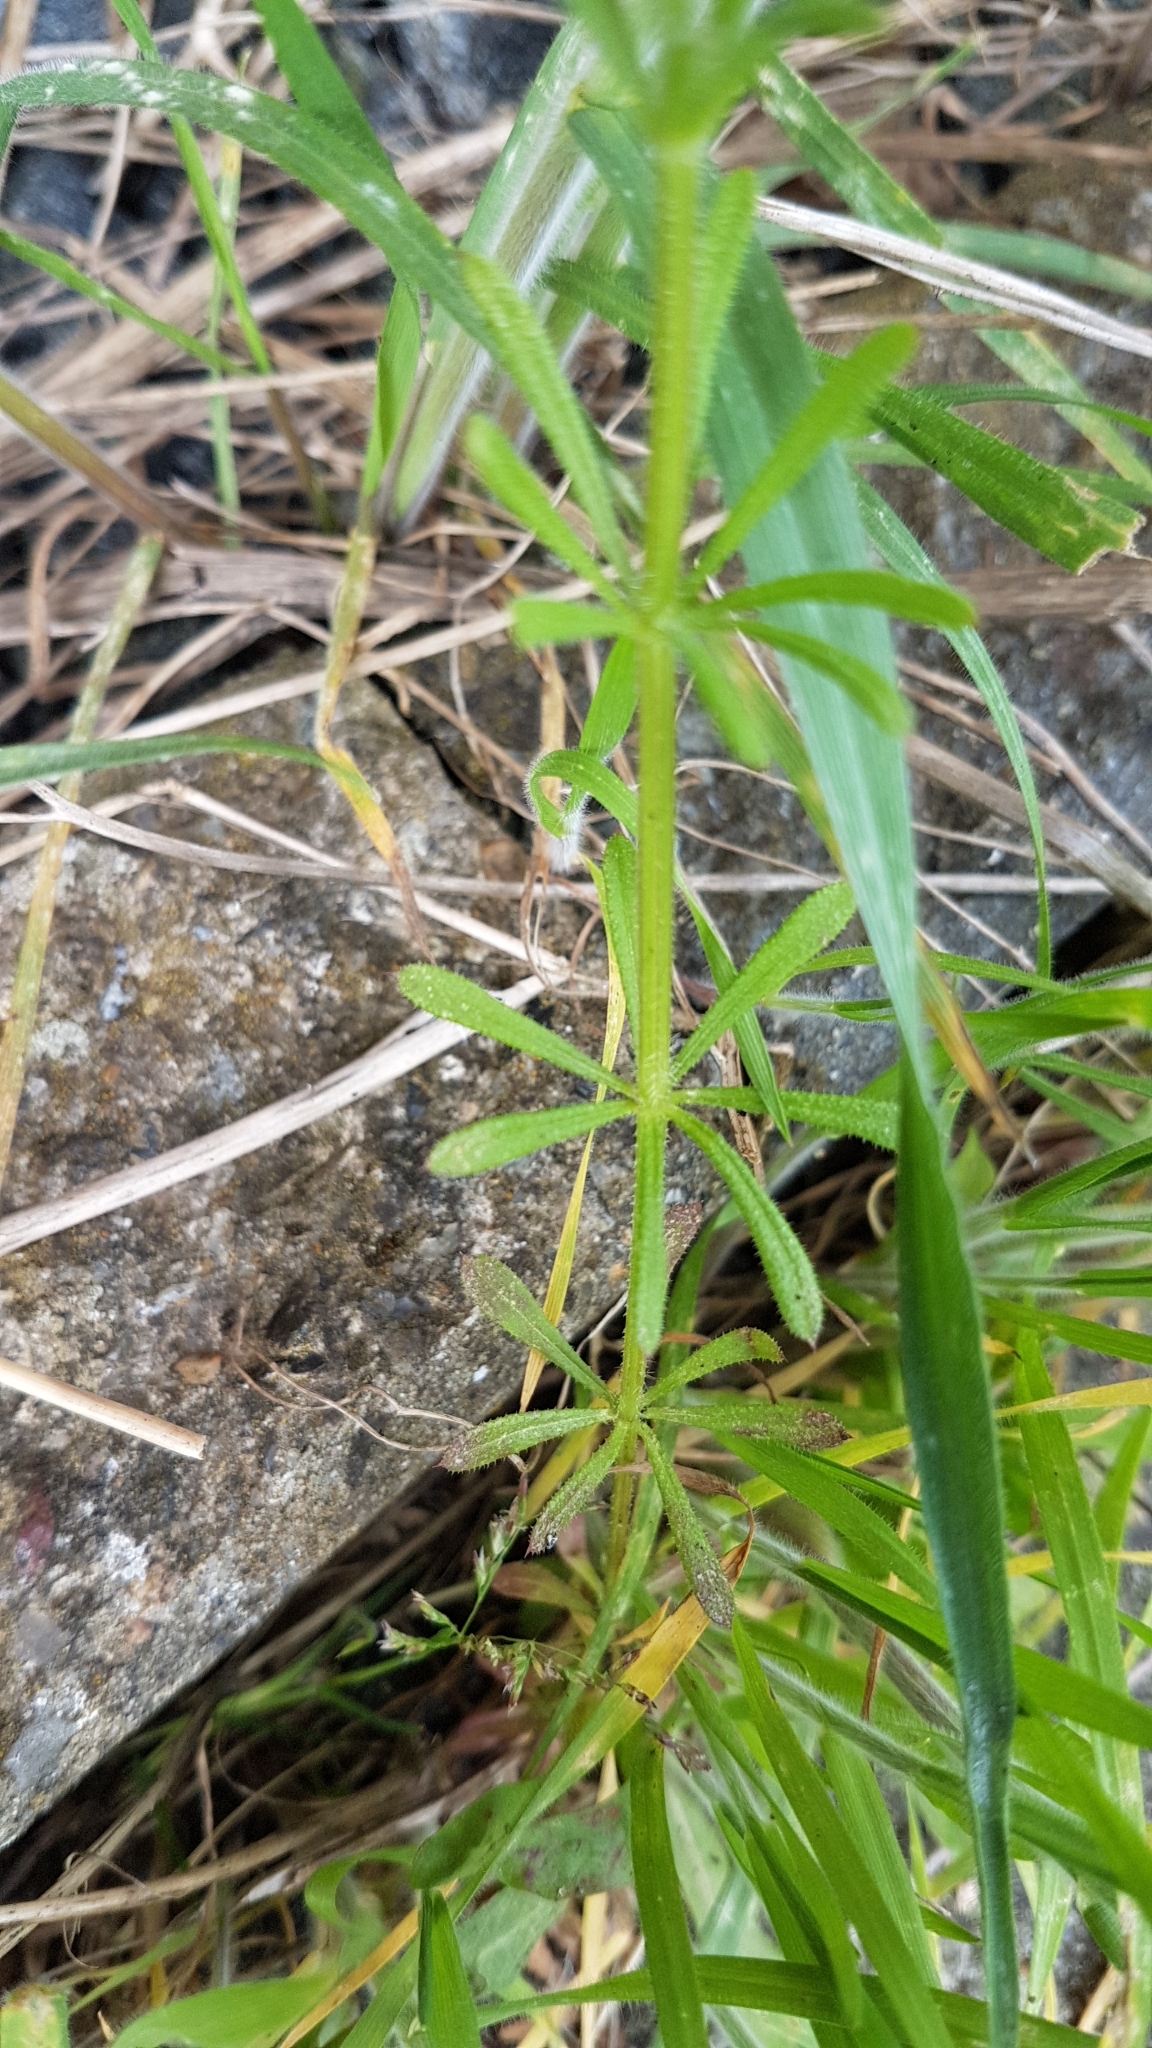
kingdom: Plantae
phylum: Tracheophyta
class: Magnoliopsida
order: Gentianales
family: Rubiaceae
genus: Galium
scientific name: Galium aparine
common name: Cleavers
